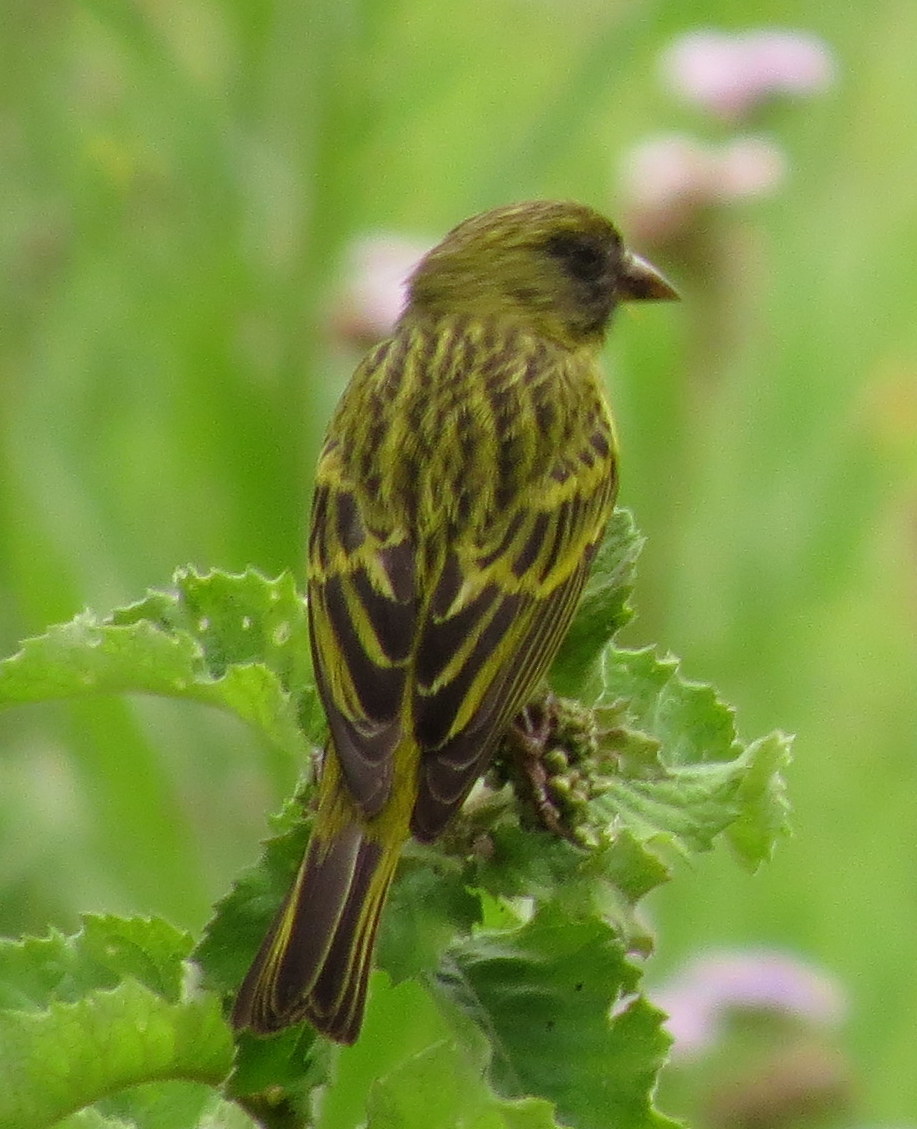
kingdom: Animalia
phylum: Chordata
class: Aves
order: Passeriformes
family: Fringillidae
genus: Crithagra
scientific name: Crithagra hyposticta
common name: Southern citril
